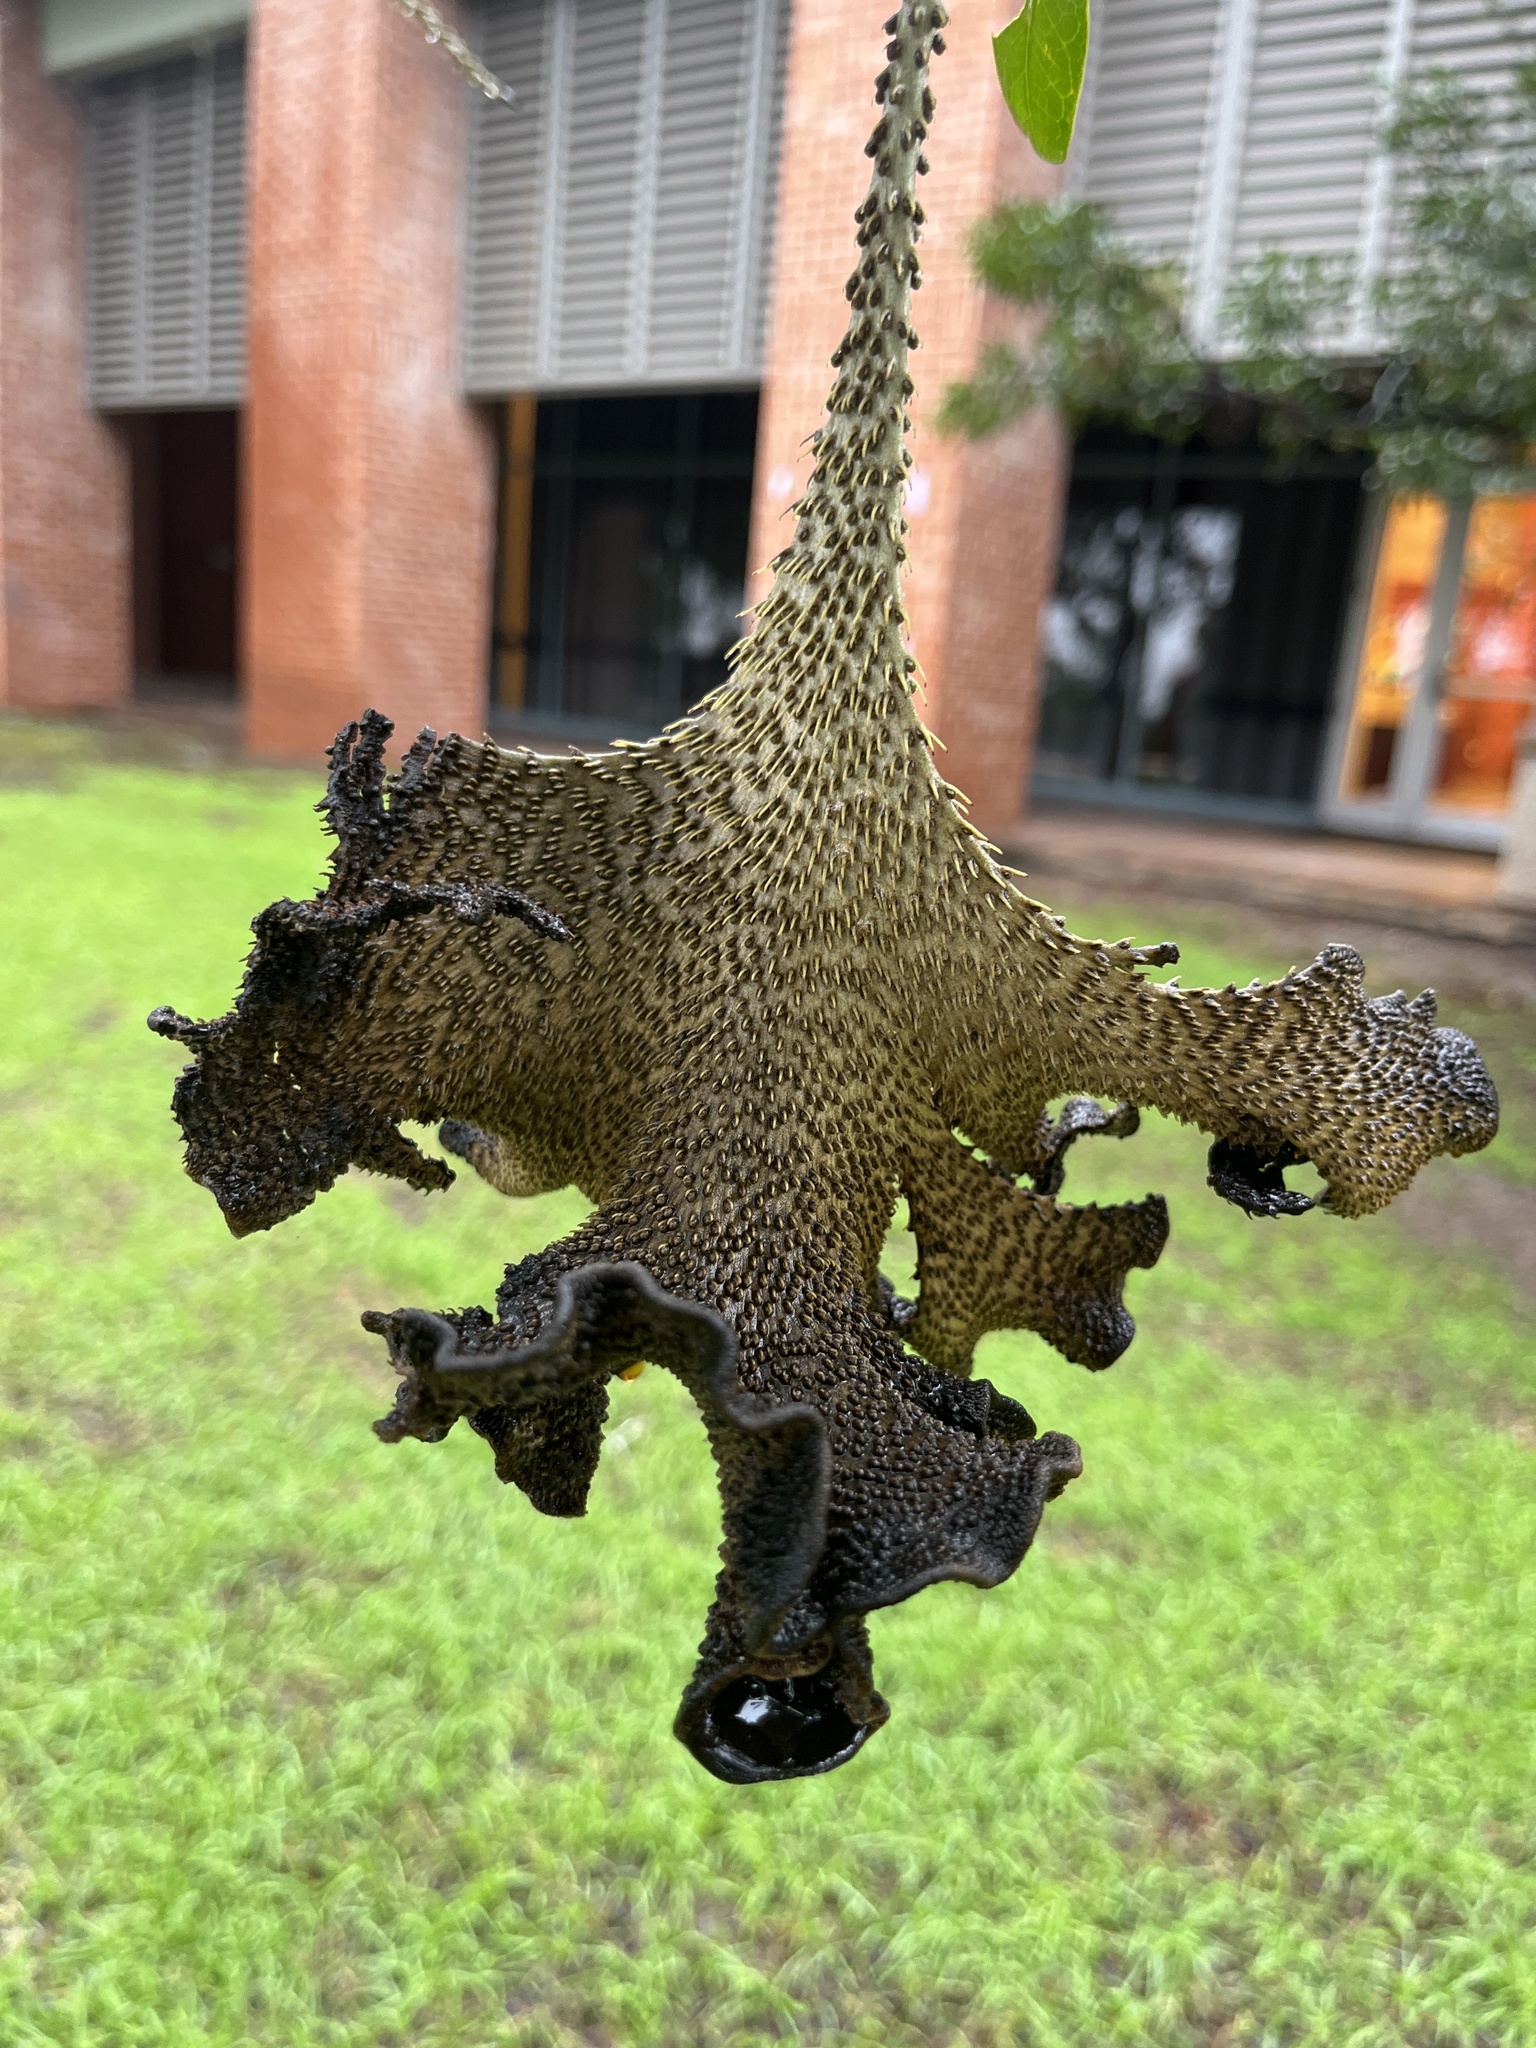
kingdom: Plantae
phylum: Tracheophyta
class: Magnoliopsida
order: Fabales
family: Fabaceae
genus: Dermatophyllum
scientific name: Dermatophyllum secundiflorum
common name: Texas-mountain-laurel
